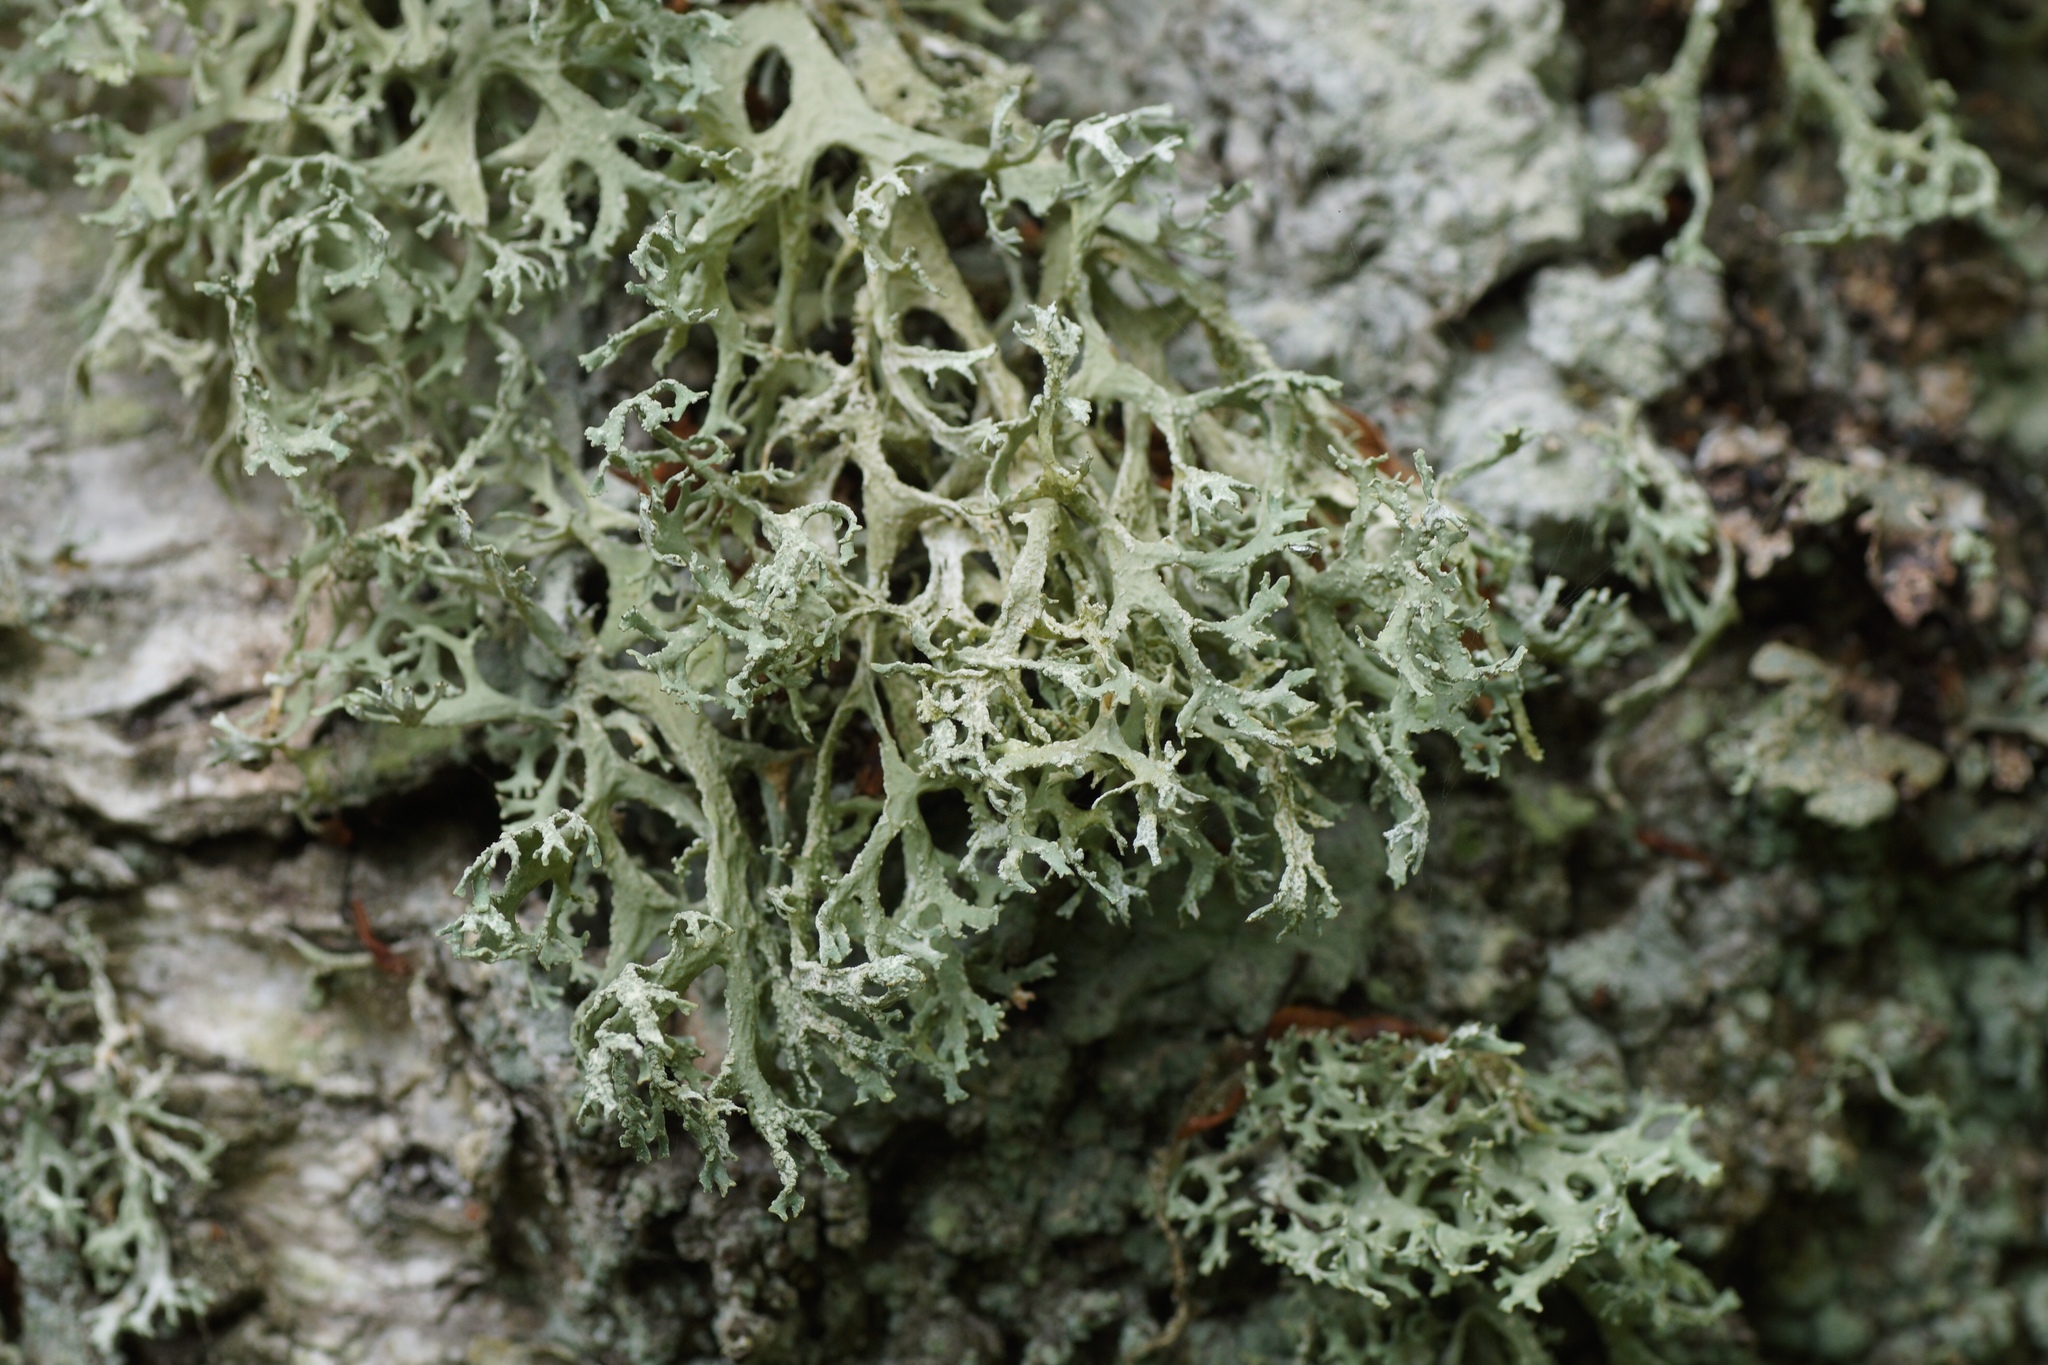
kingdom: Fungi
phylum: Ascomycota
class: Lecanoromycetes
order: Lecanorales
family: Parmeliaceae
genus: Evernia
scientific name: Evernia prunastri
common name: Oak moss
